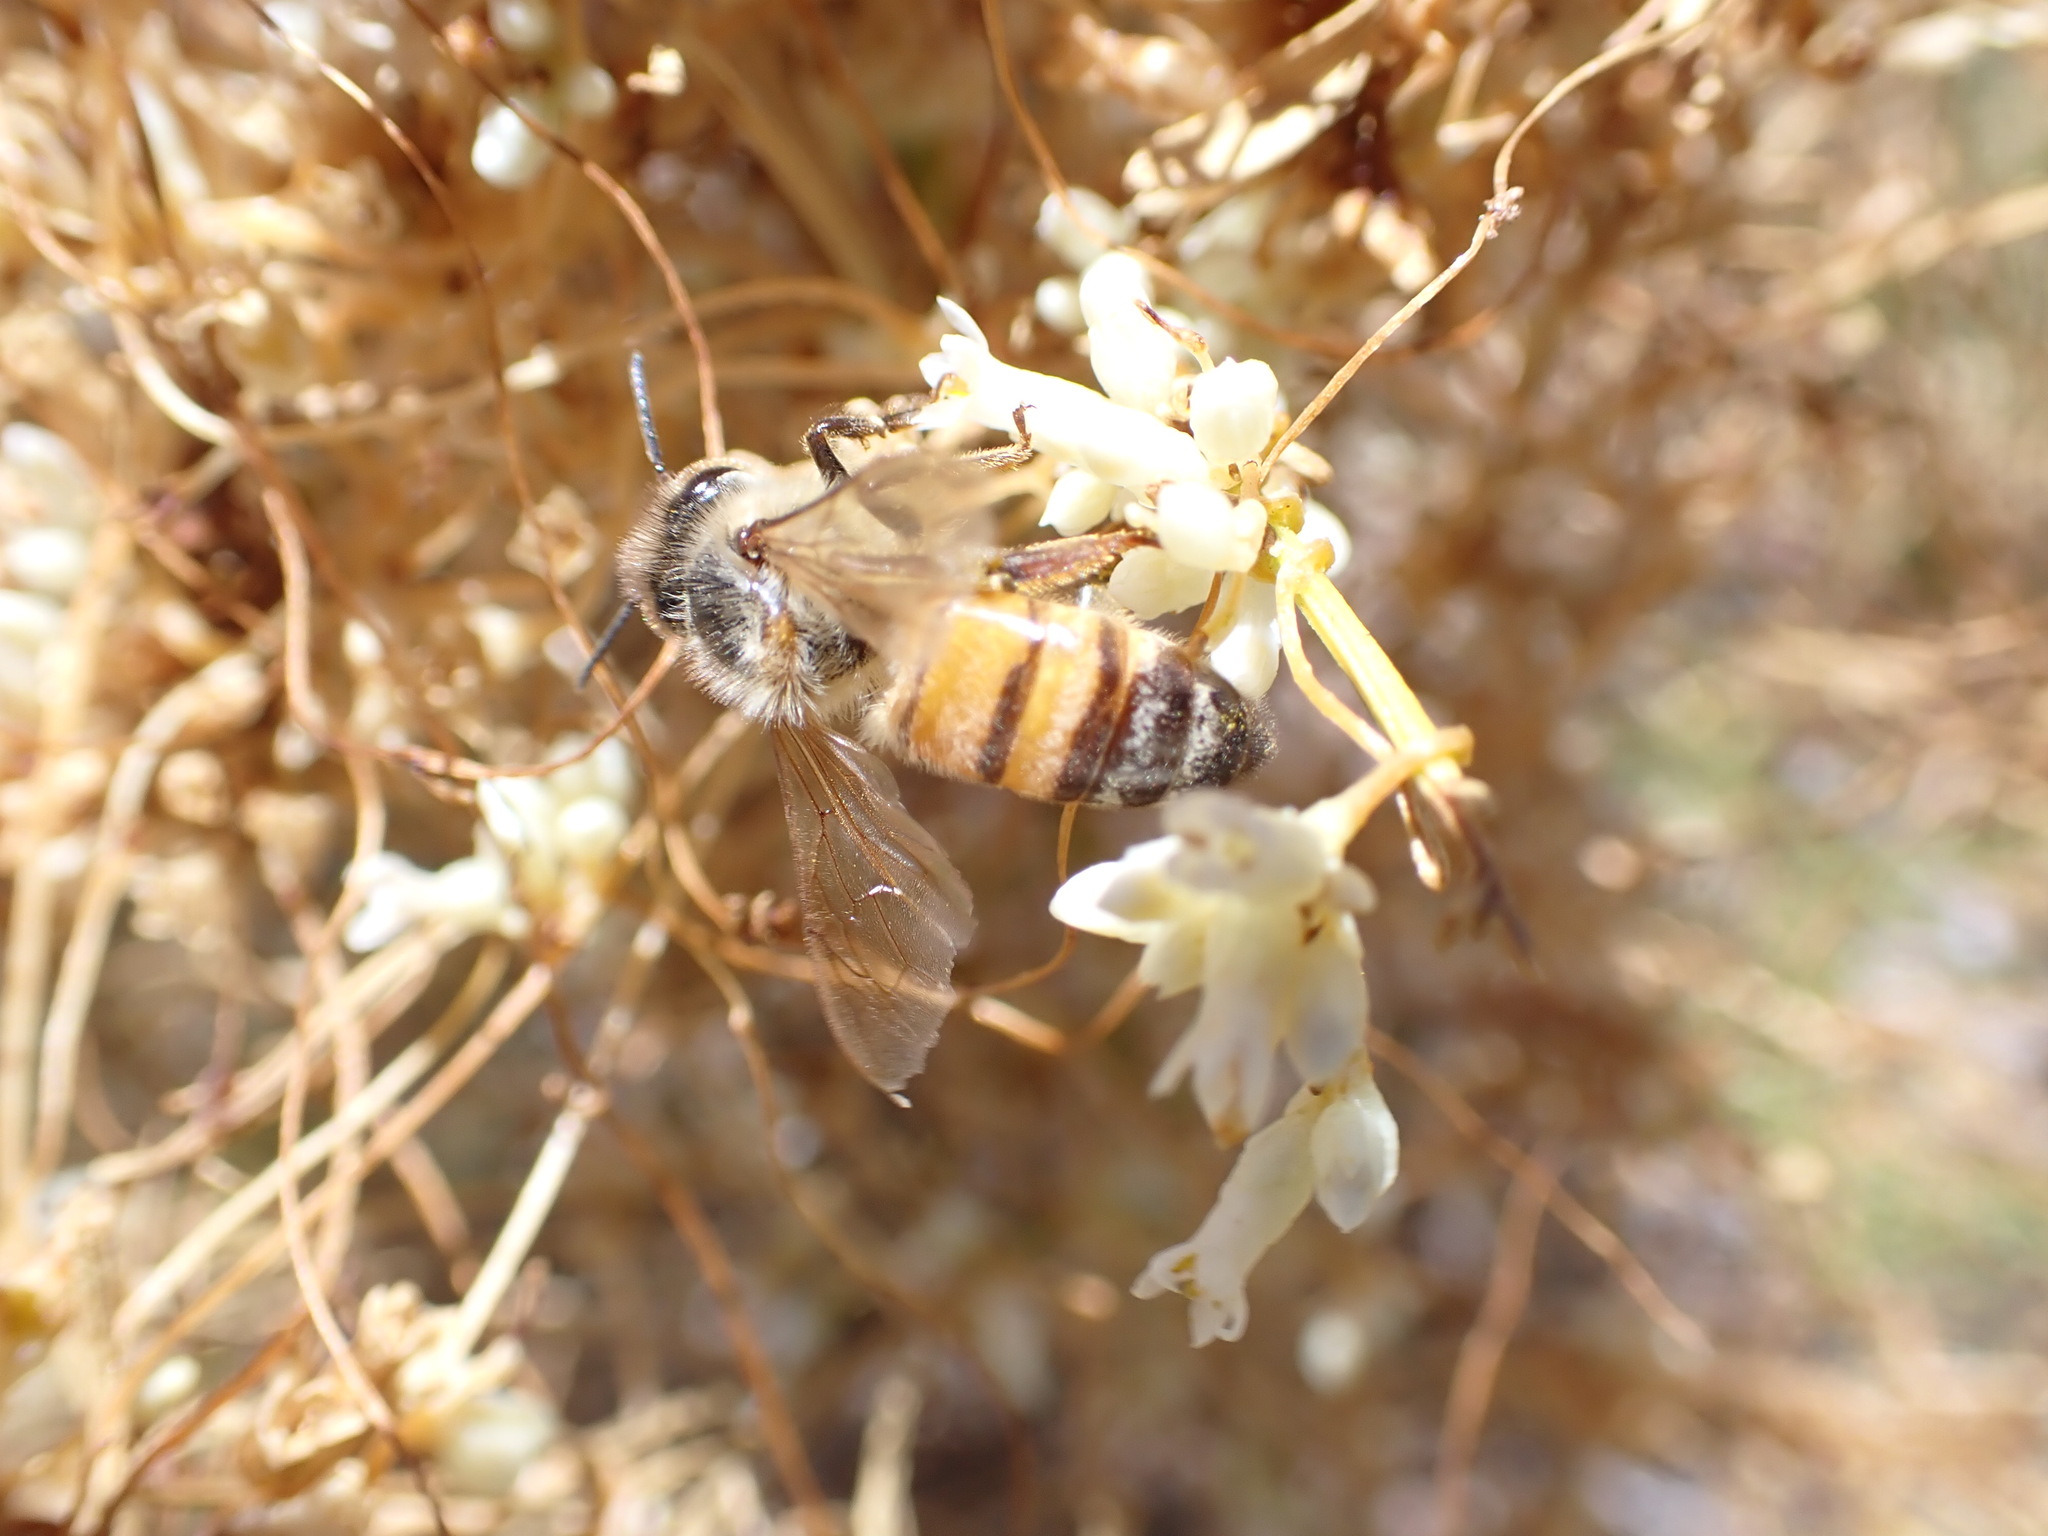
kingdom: Animalia
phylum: Arthropoda
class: Insecta
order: Hymenoptera
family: Apidae
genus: Apis
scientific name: Apis mellifera
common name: Honey bee
